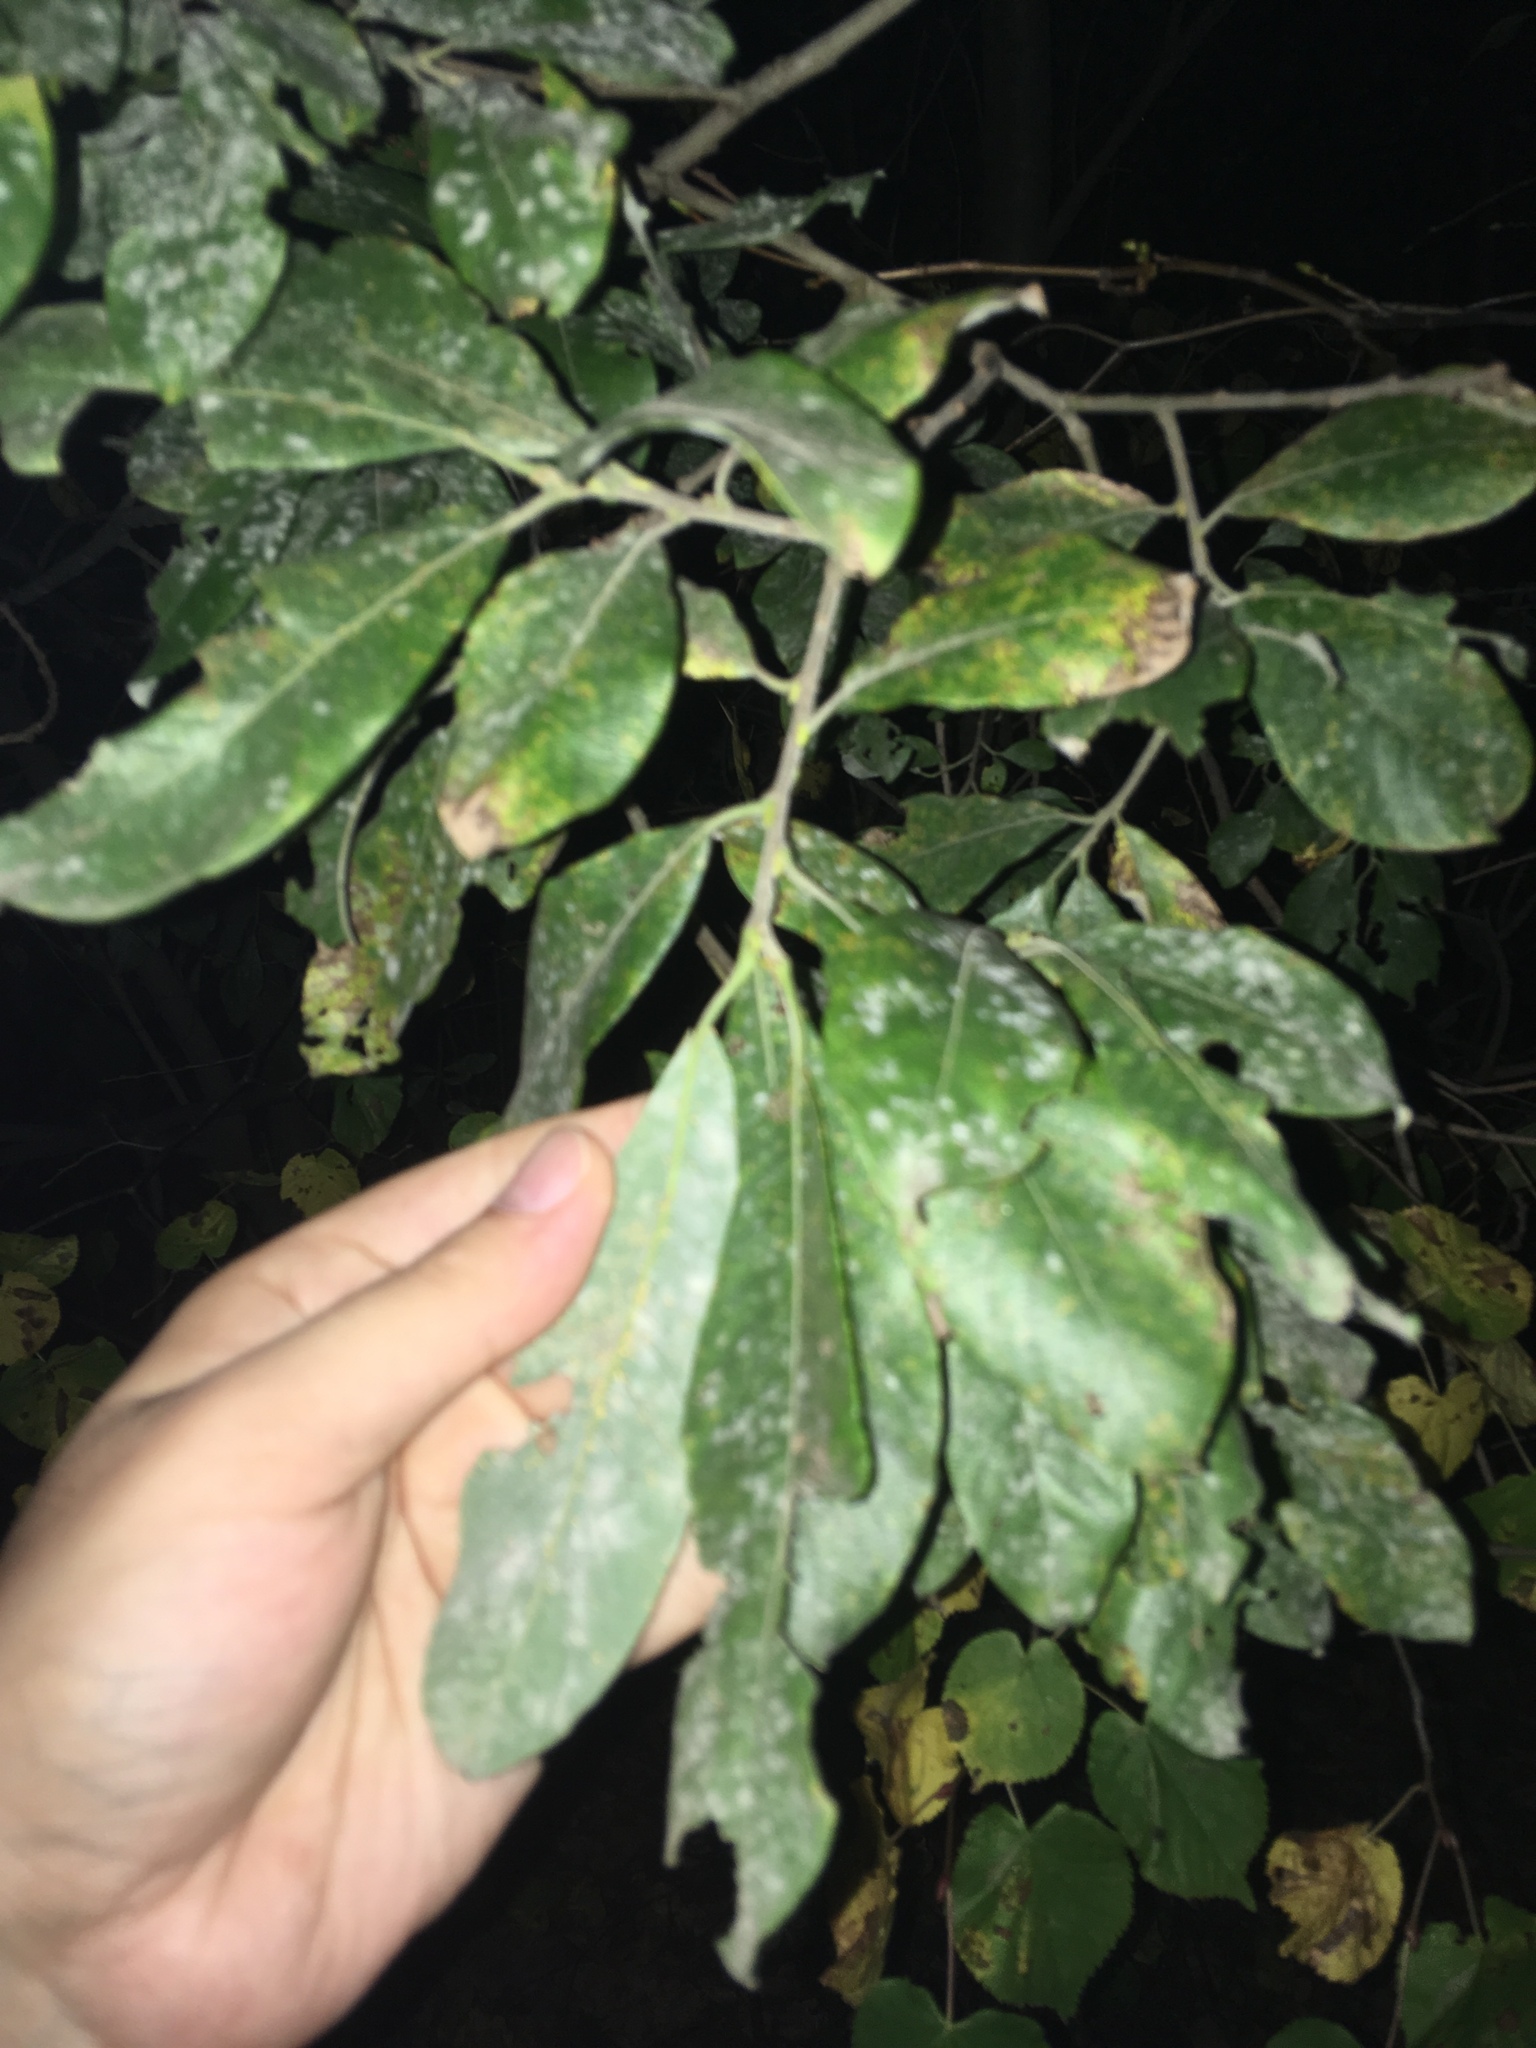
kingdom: Plantae
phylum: Tracheophyta
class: Magnoliopsida
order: Malpighiales
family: Salicaceae
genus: Salix
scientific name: Salix caprea
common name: Goat willow
